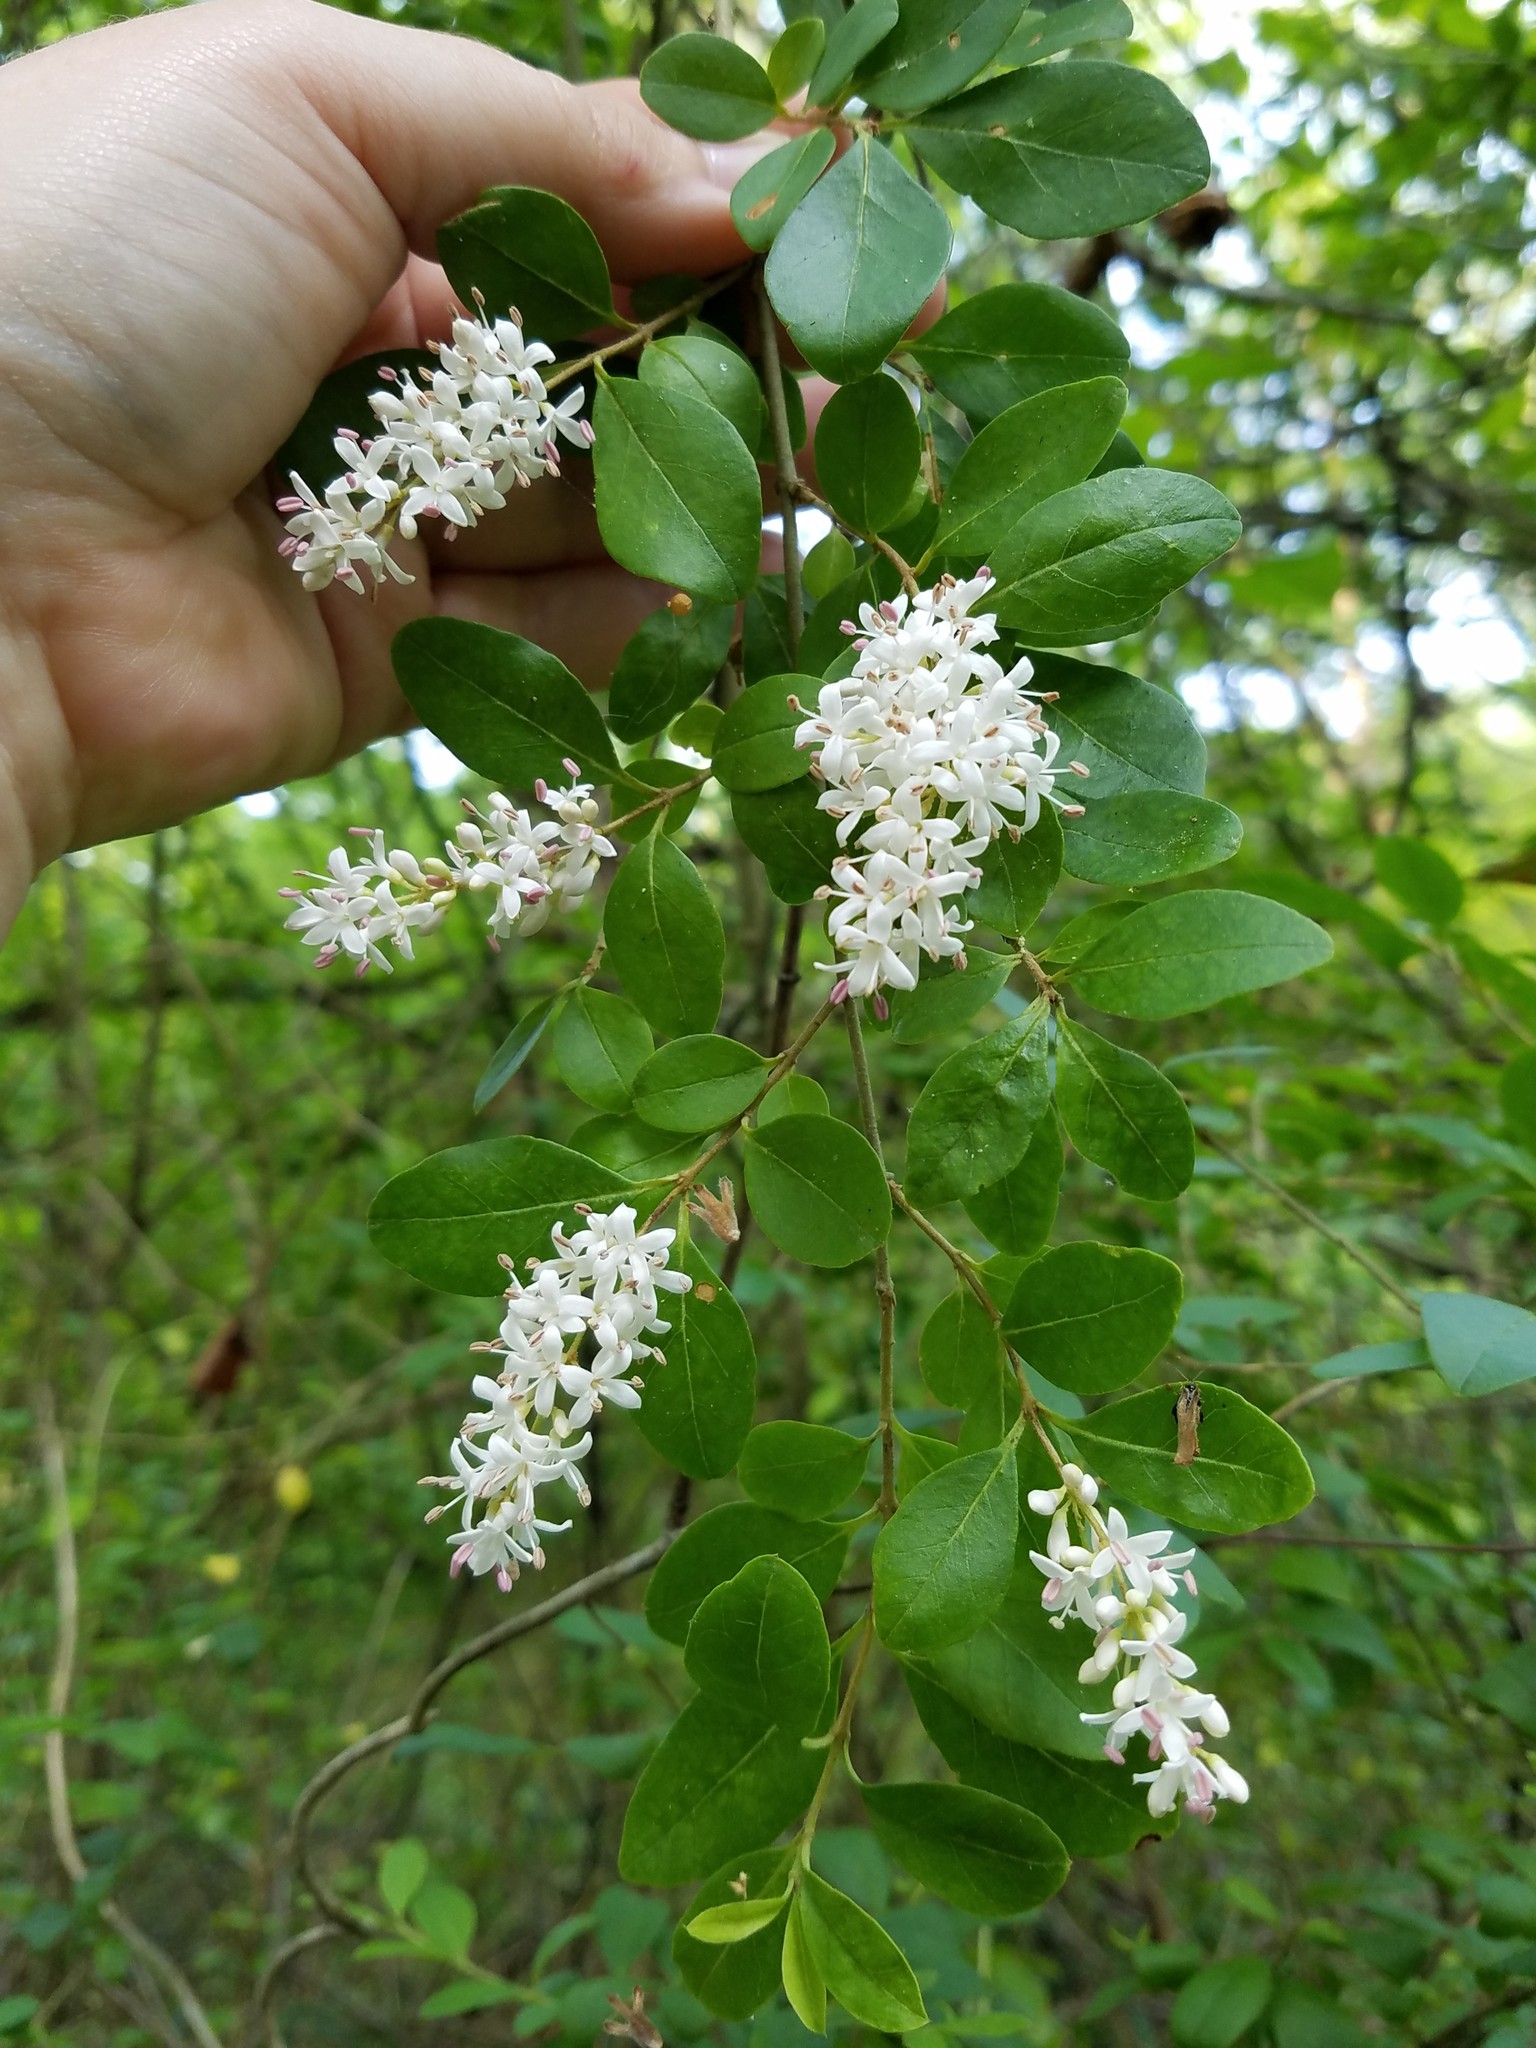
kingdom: Plantae
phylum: Tracheophyta
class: Magnoliopsida
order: Lamiales
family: Oleaceae
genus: Ligustrum
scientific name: Ligustrum sinense
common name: Chinese privet
